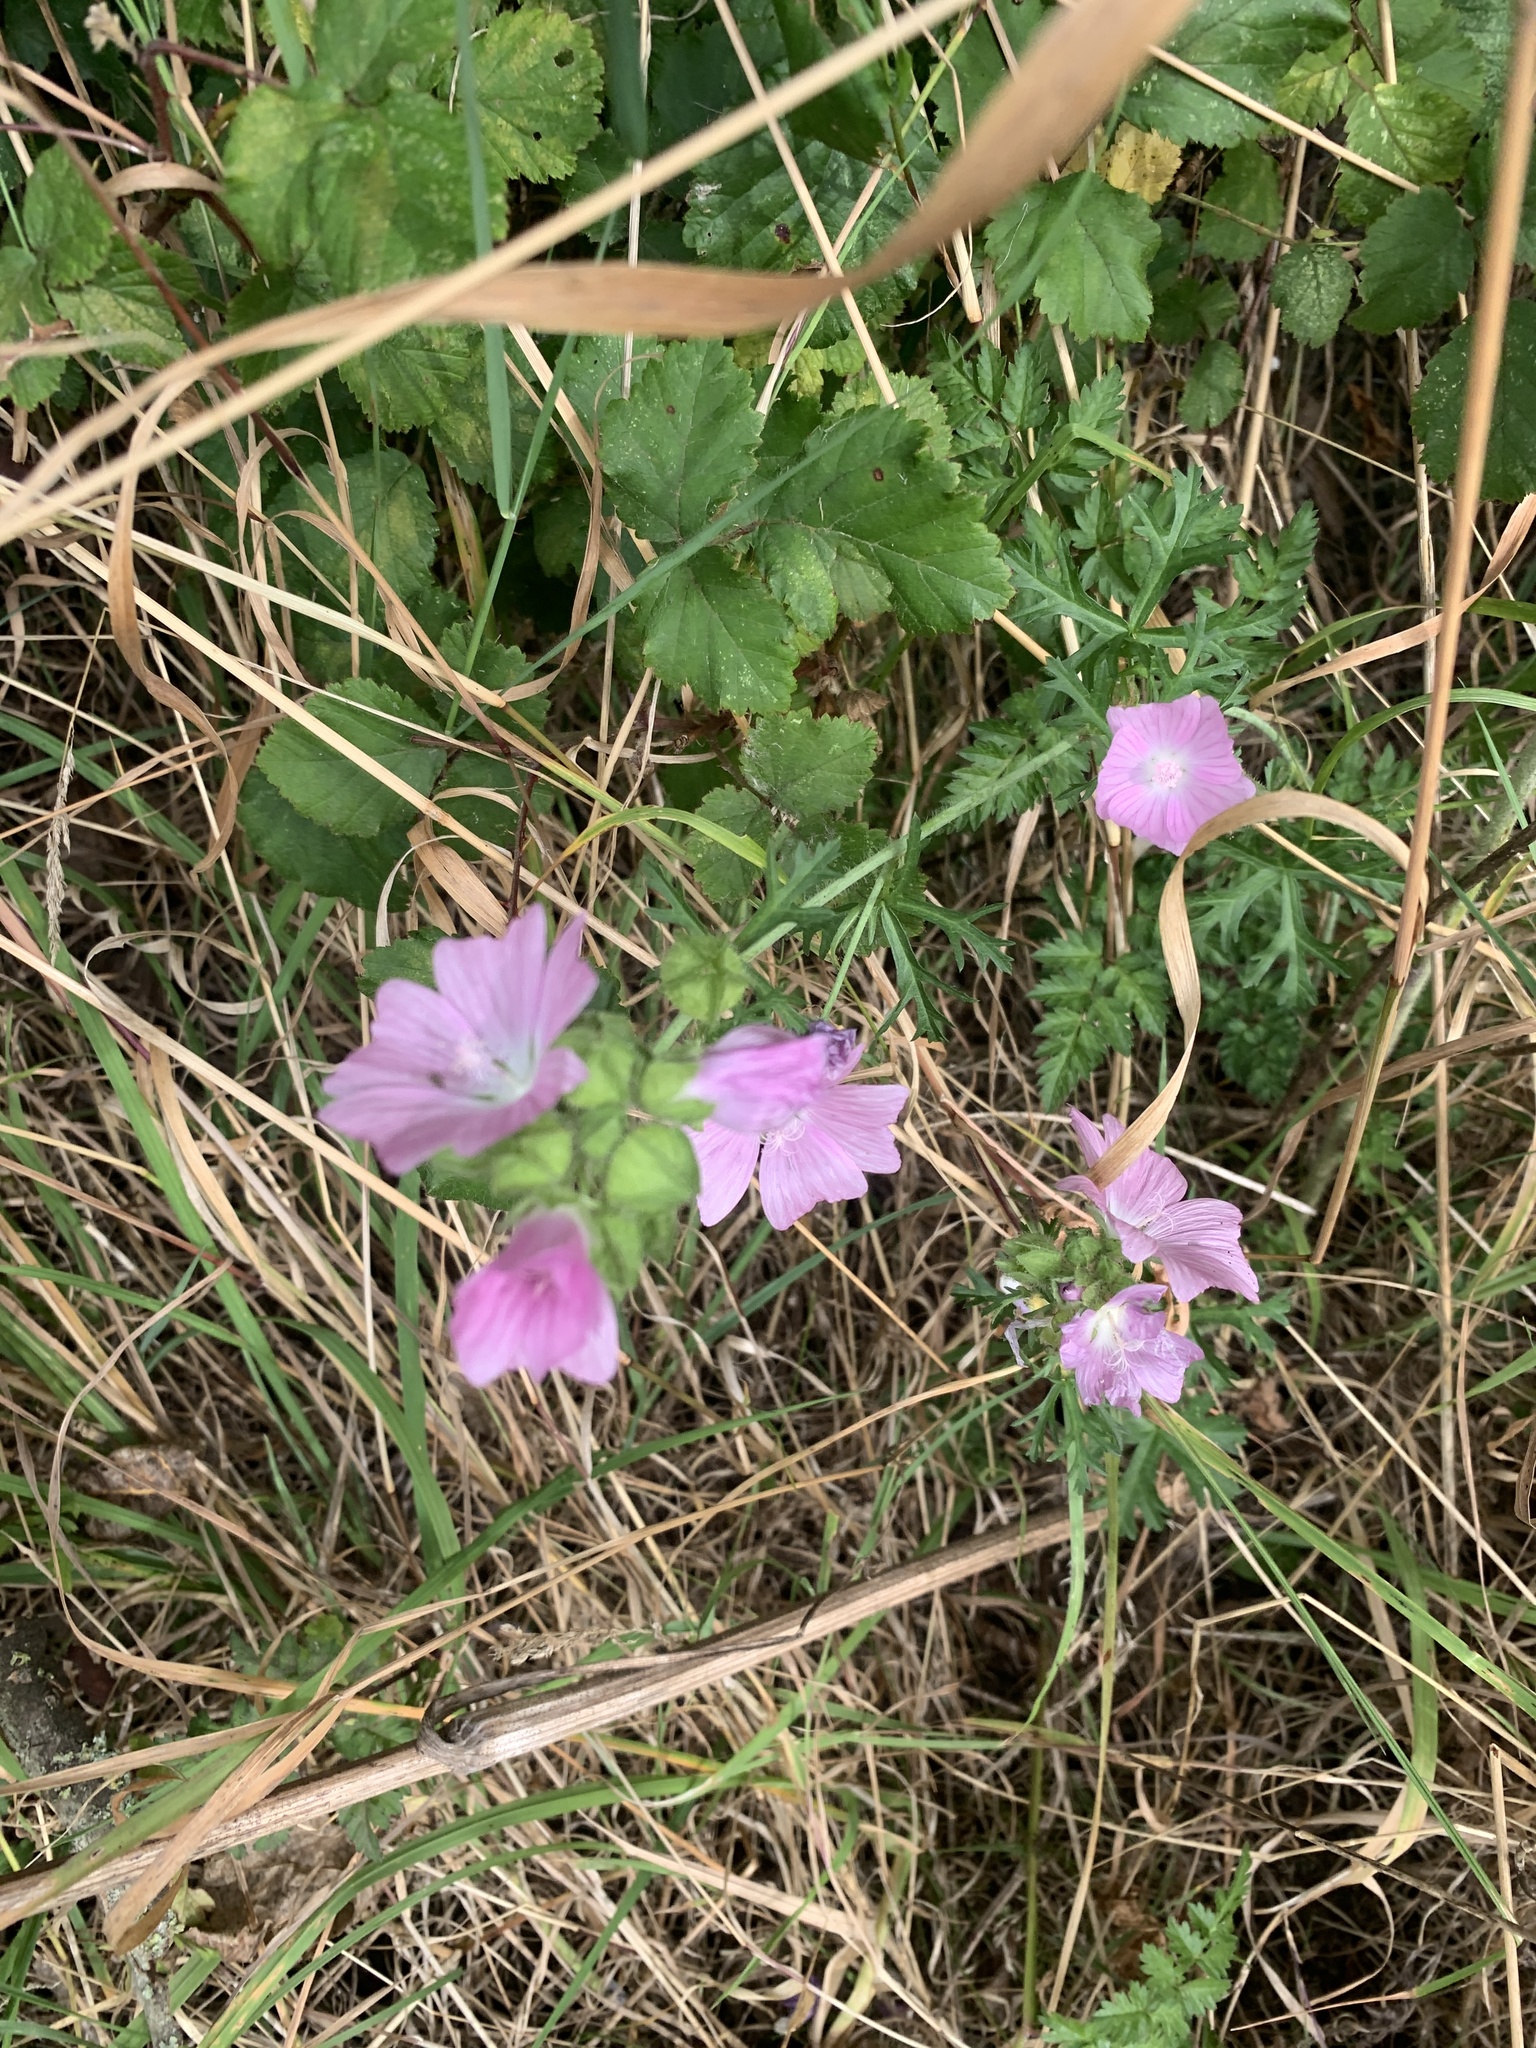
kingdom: Plantae
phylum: Tracheophyta
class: Magnoliopsida
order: Malvales
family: Malvaceae
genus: Malva
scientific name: Malva moschata
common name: Musk mallow
